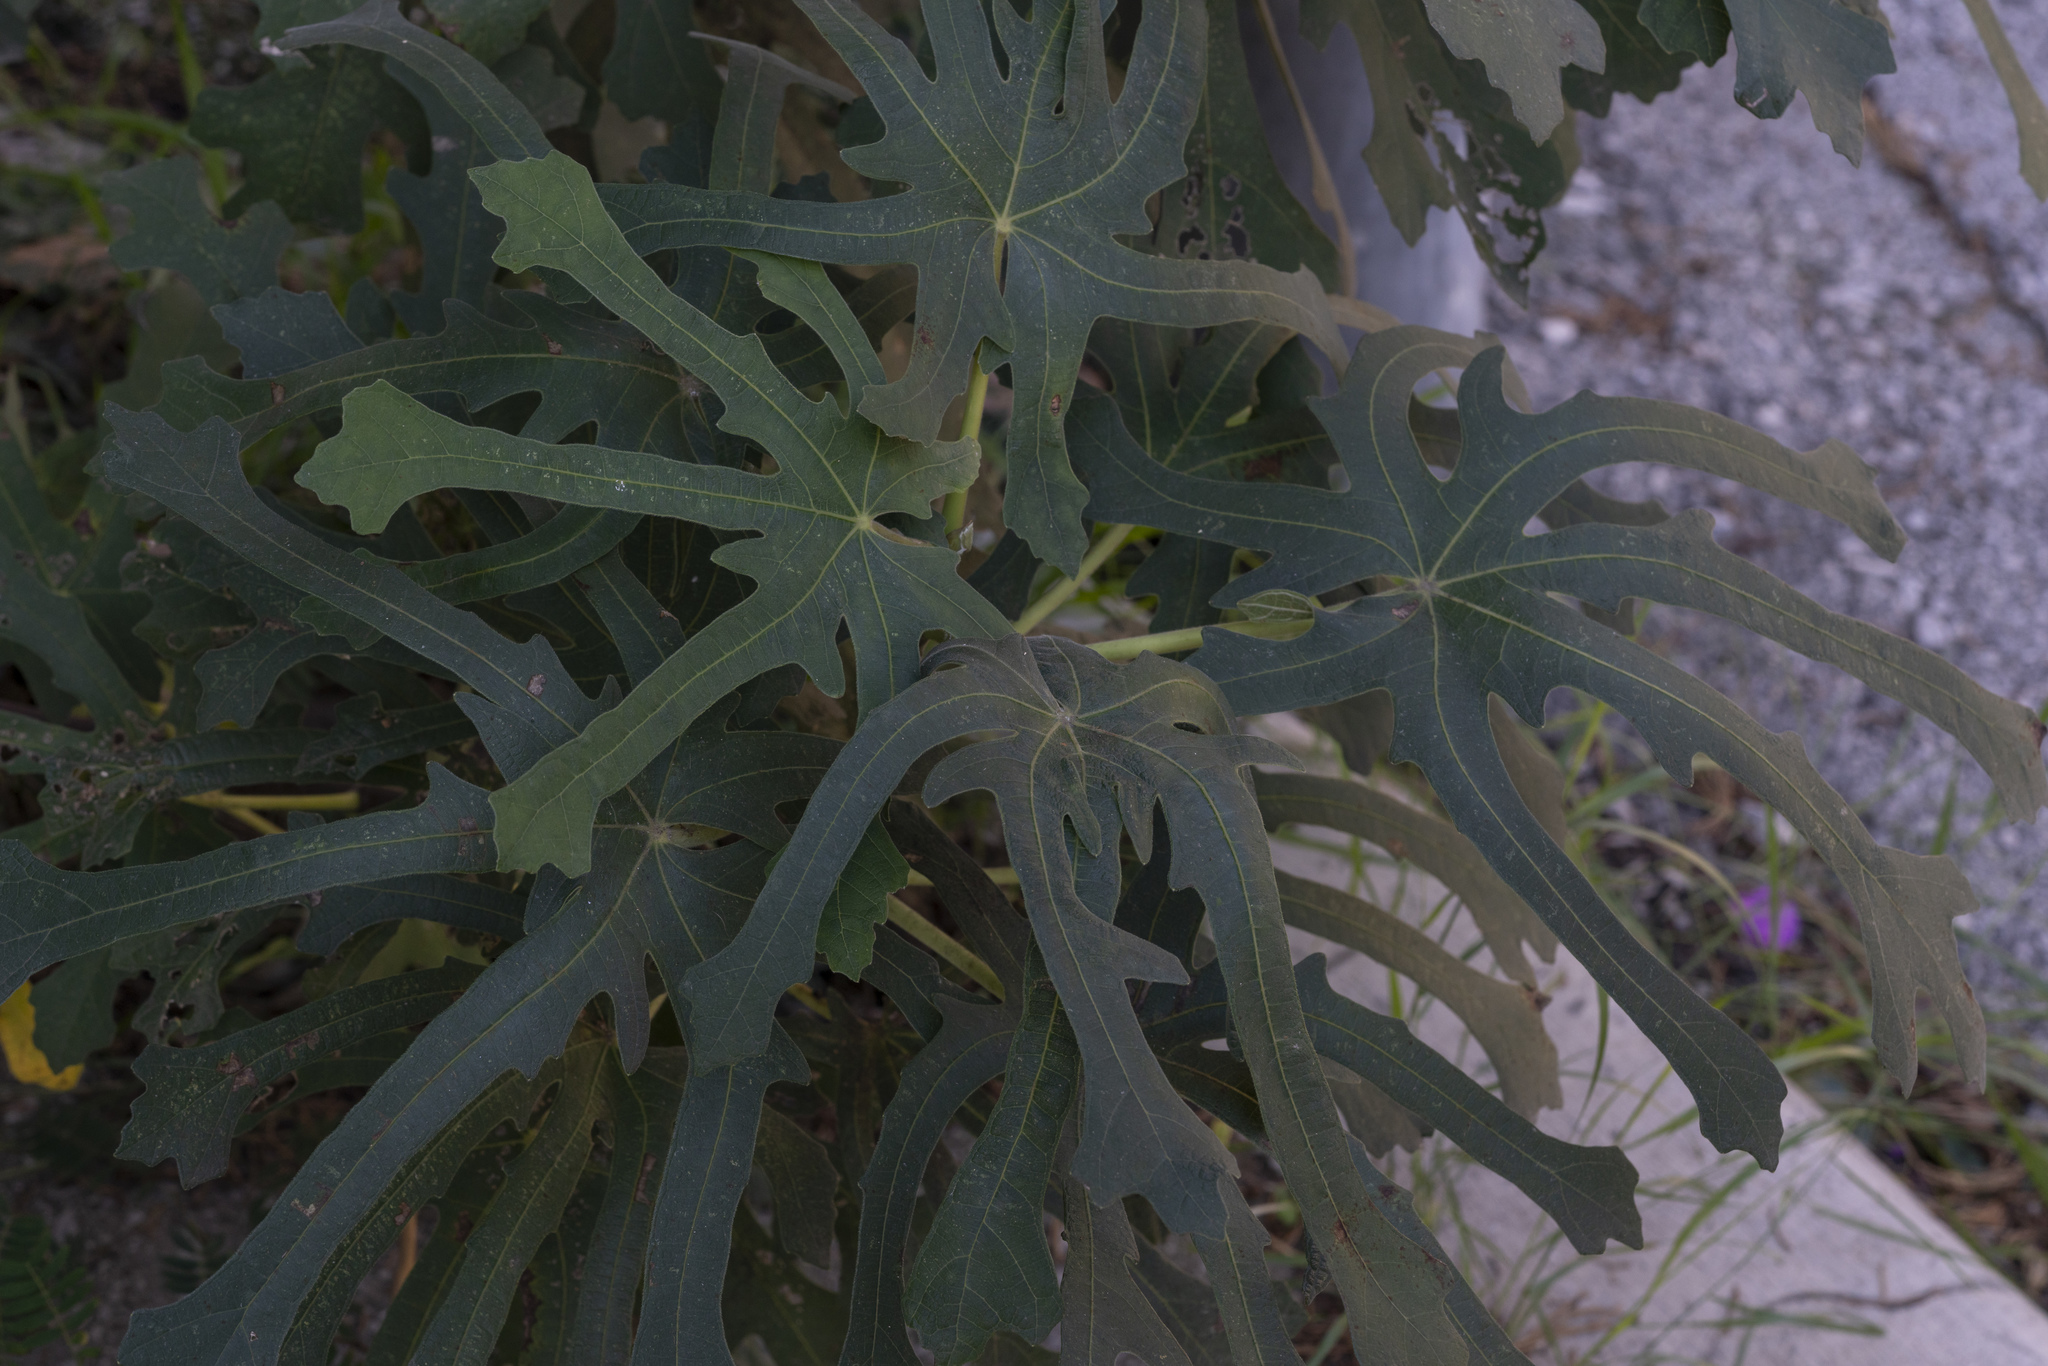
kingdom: Plantae
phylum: Tracheophyta
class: Magnoliopsida
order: Rosales
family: Moraceae
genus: Ficus
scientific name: Ficus carica
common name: Fig
